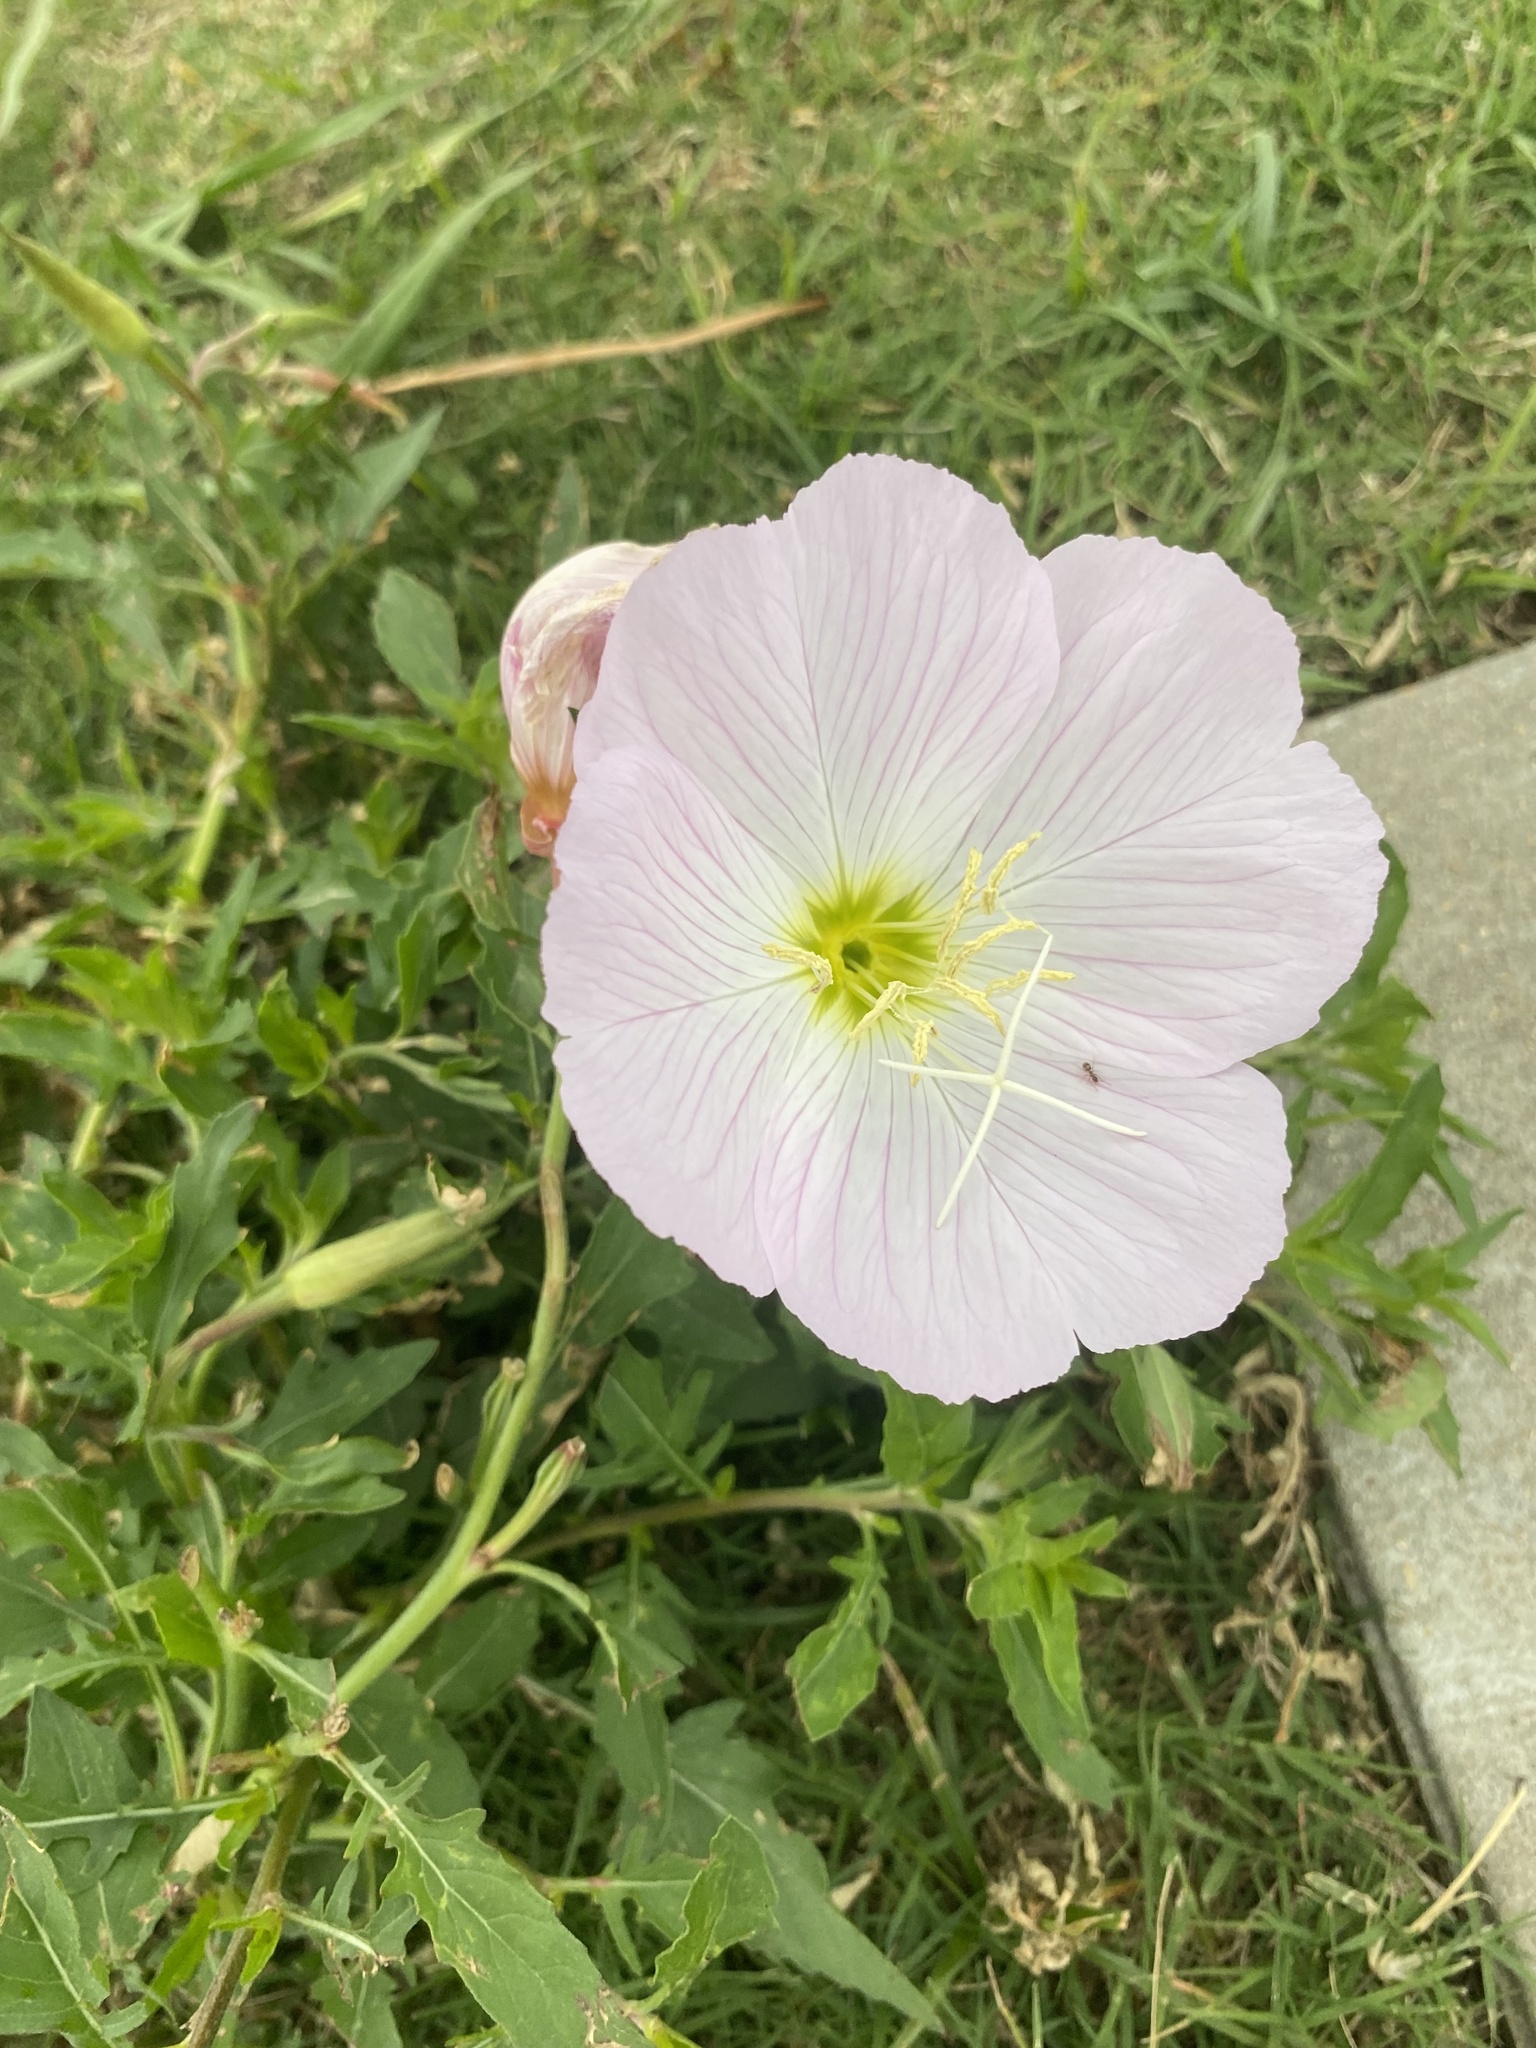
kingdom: Plantae
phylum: Tracheophyta
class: Magnoliopsida
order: Myrtales
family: Onagraceae
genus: Oenothera
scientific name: Oenothera speciosa
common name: White evening-primrose
